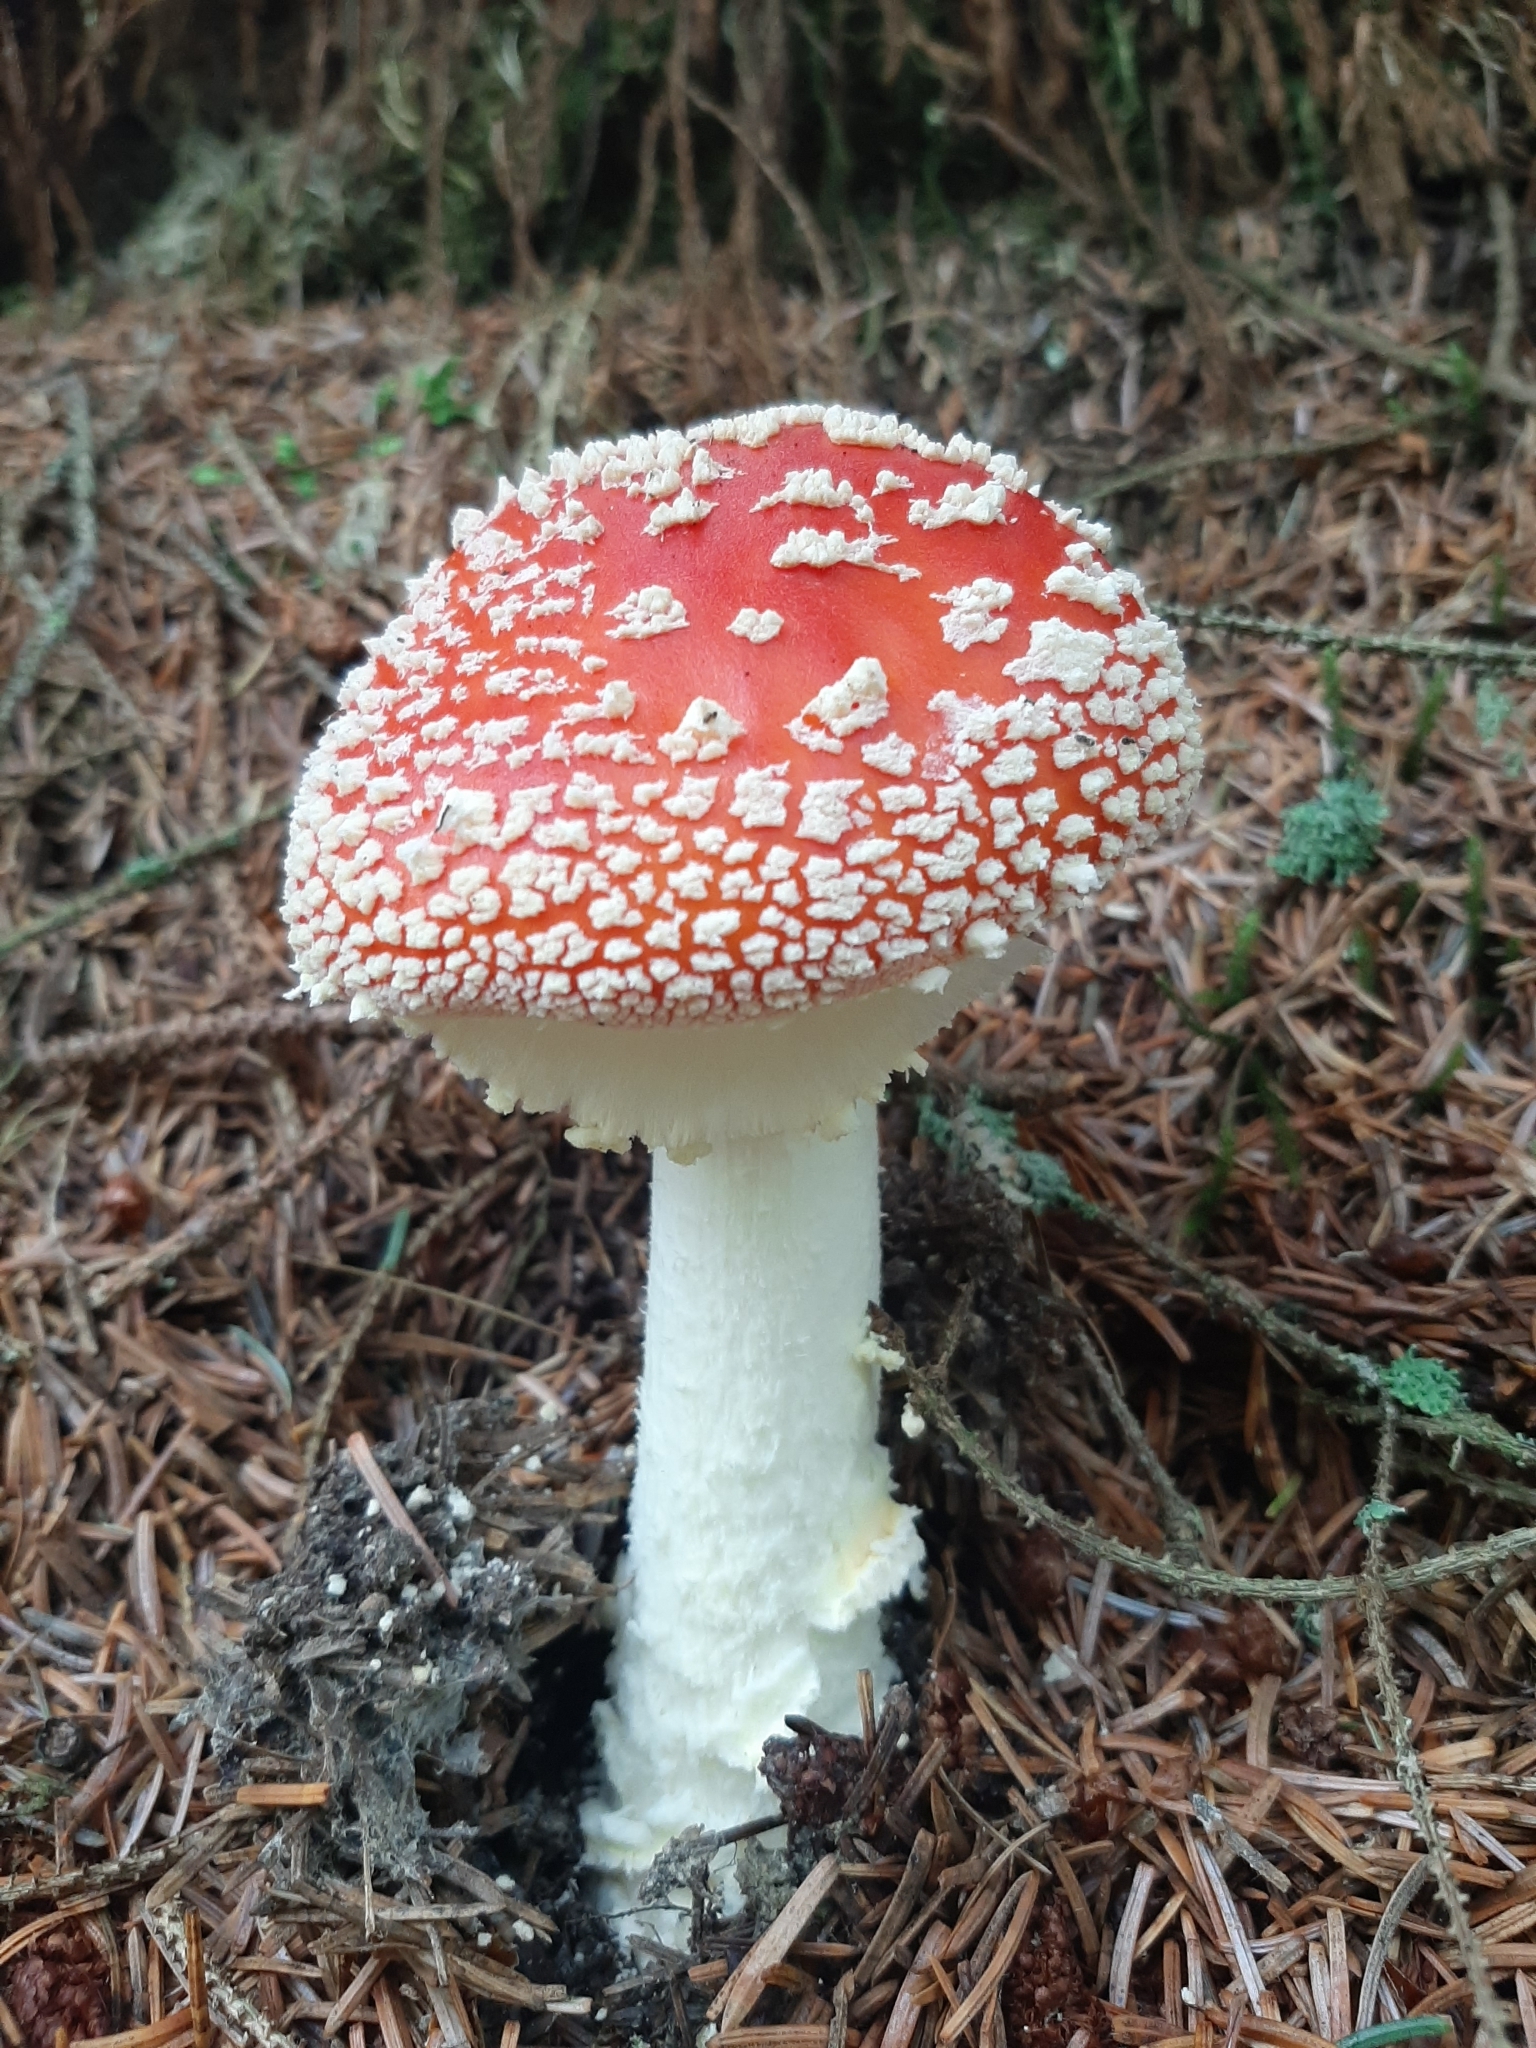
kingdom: Fungi
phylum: Basidiomycota
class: Agaricomycetes
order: Agaricales
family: Amanitaceae
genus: Amanita
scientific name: Amanita muscaria
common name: Fly agaric
